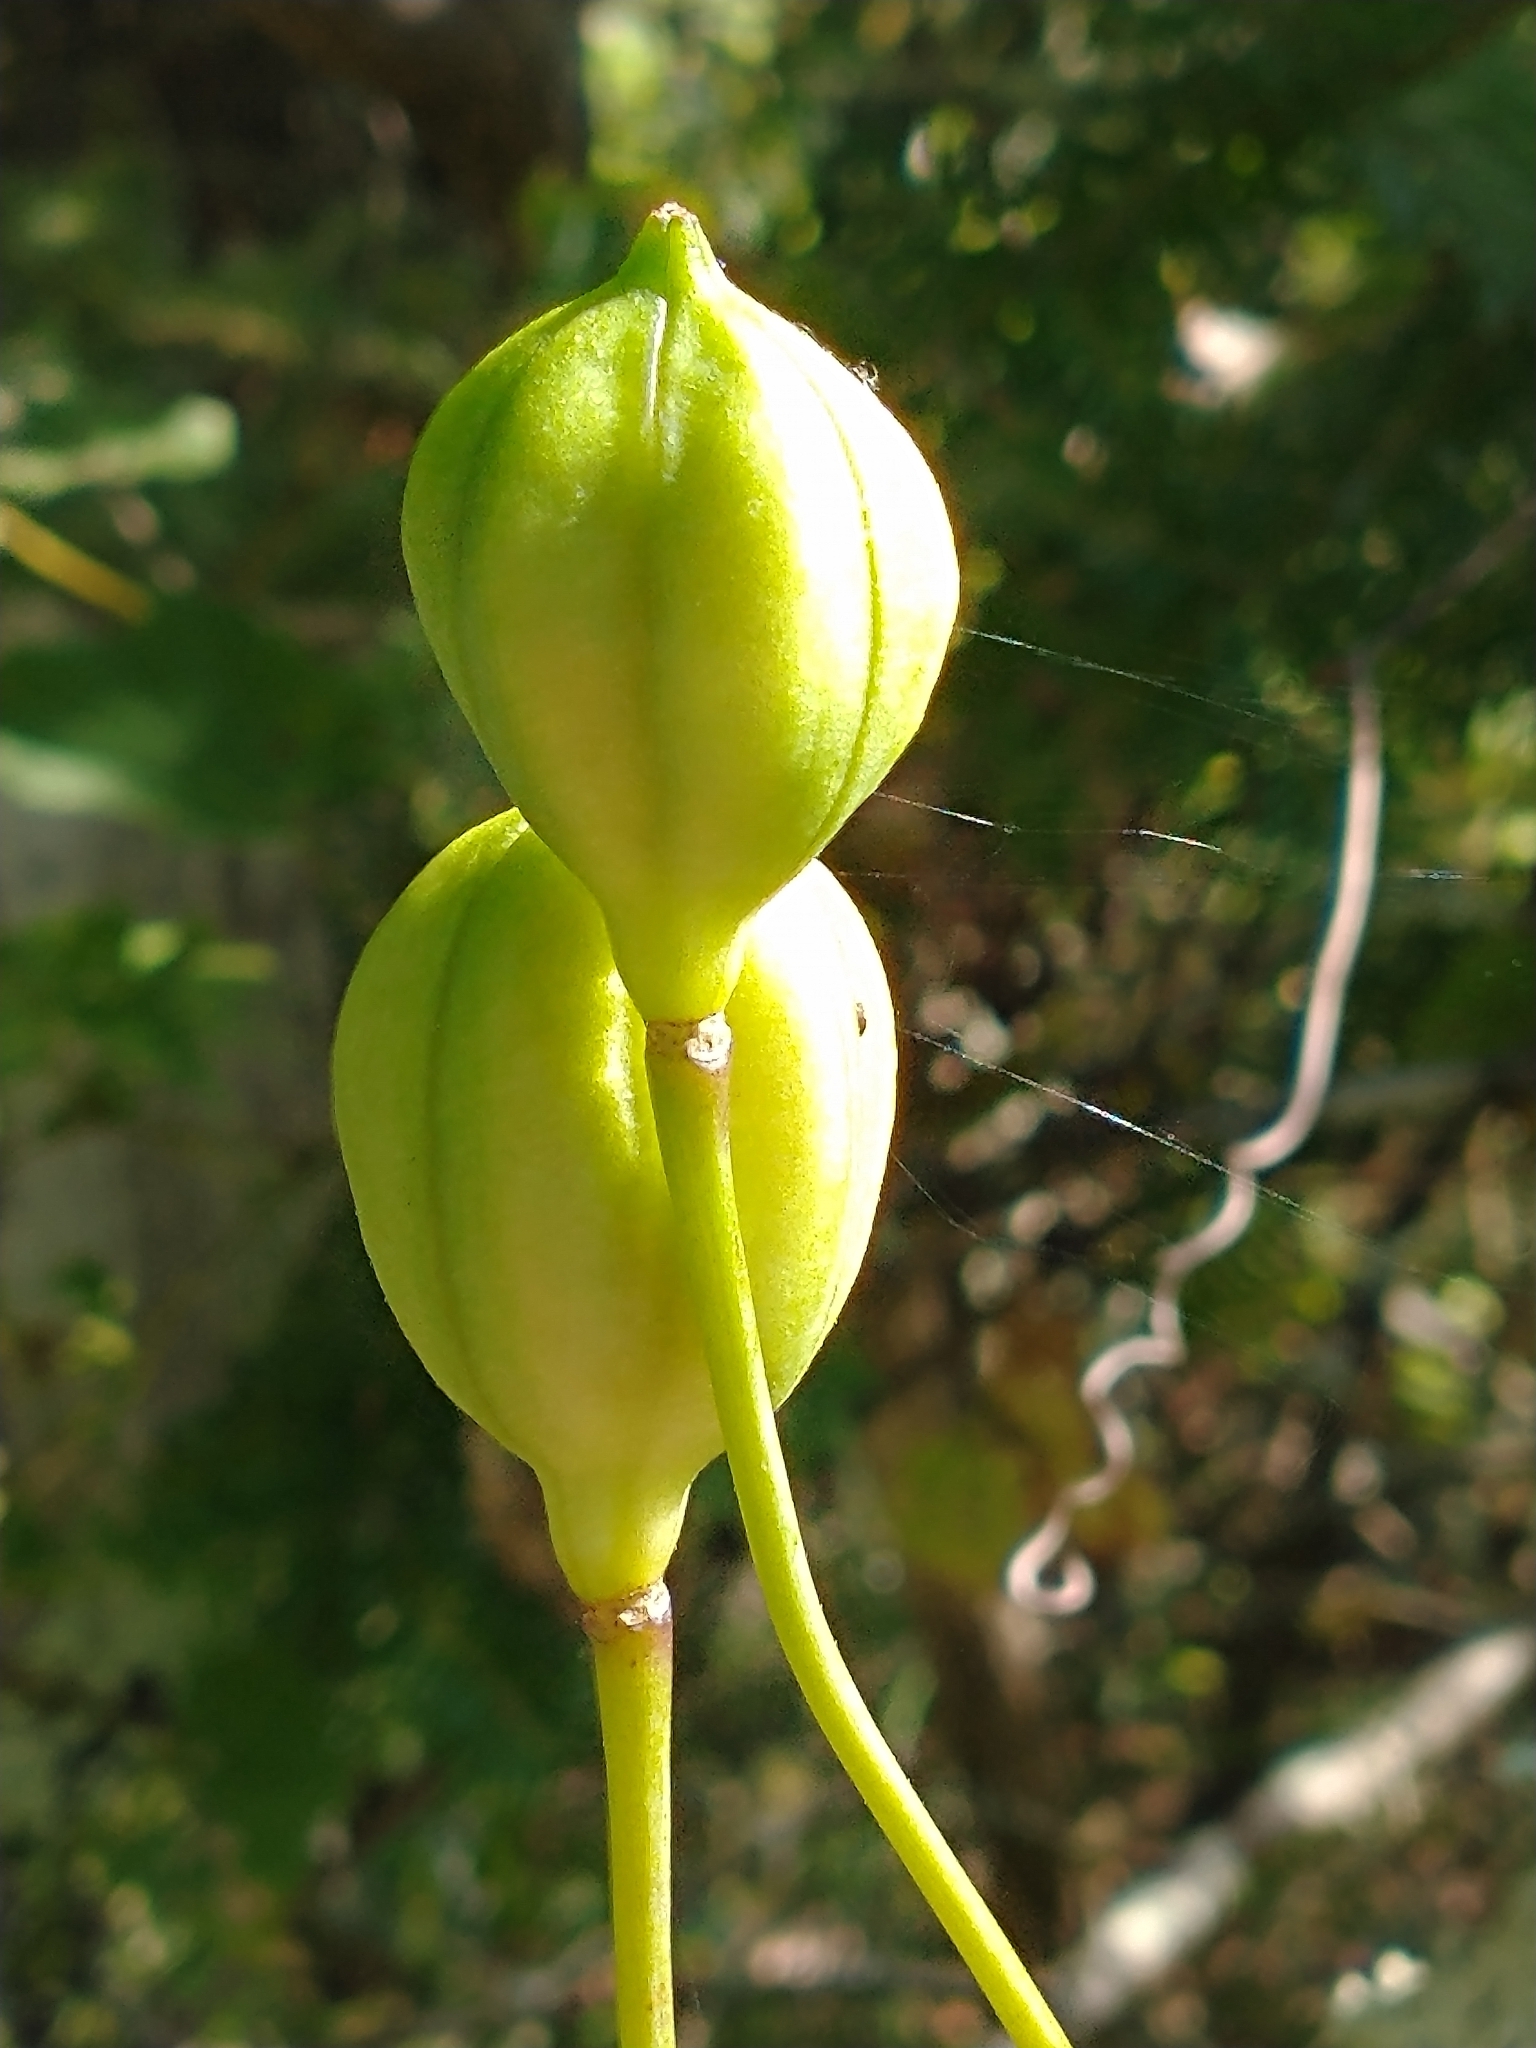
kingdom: Plantae
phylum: Tracheophyta
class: Liliopsida
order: Liliales
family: Liliaceae
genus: Lilium
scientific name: Lilium canadense
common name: Canada lily
